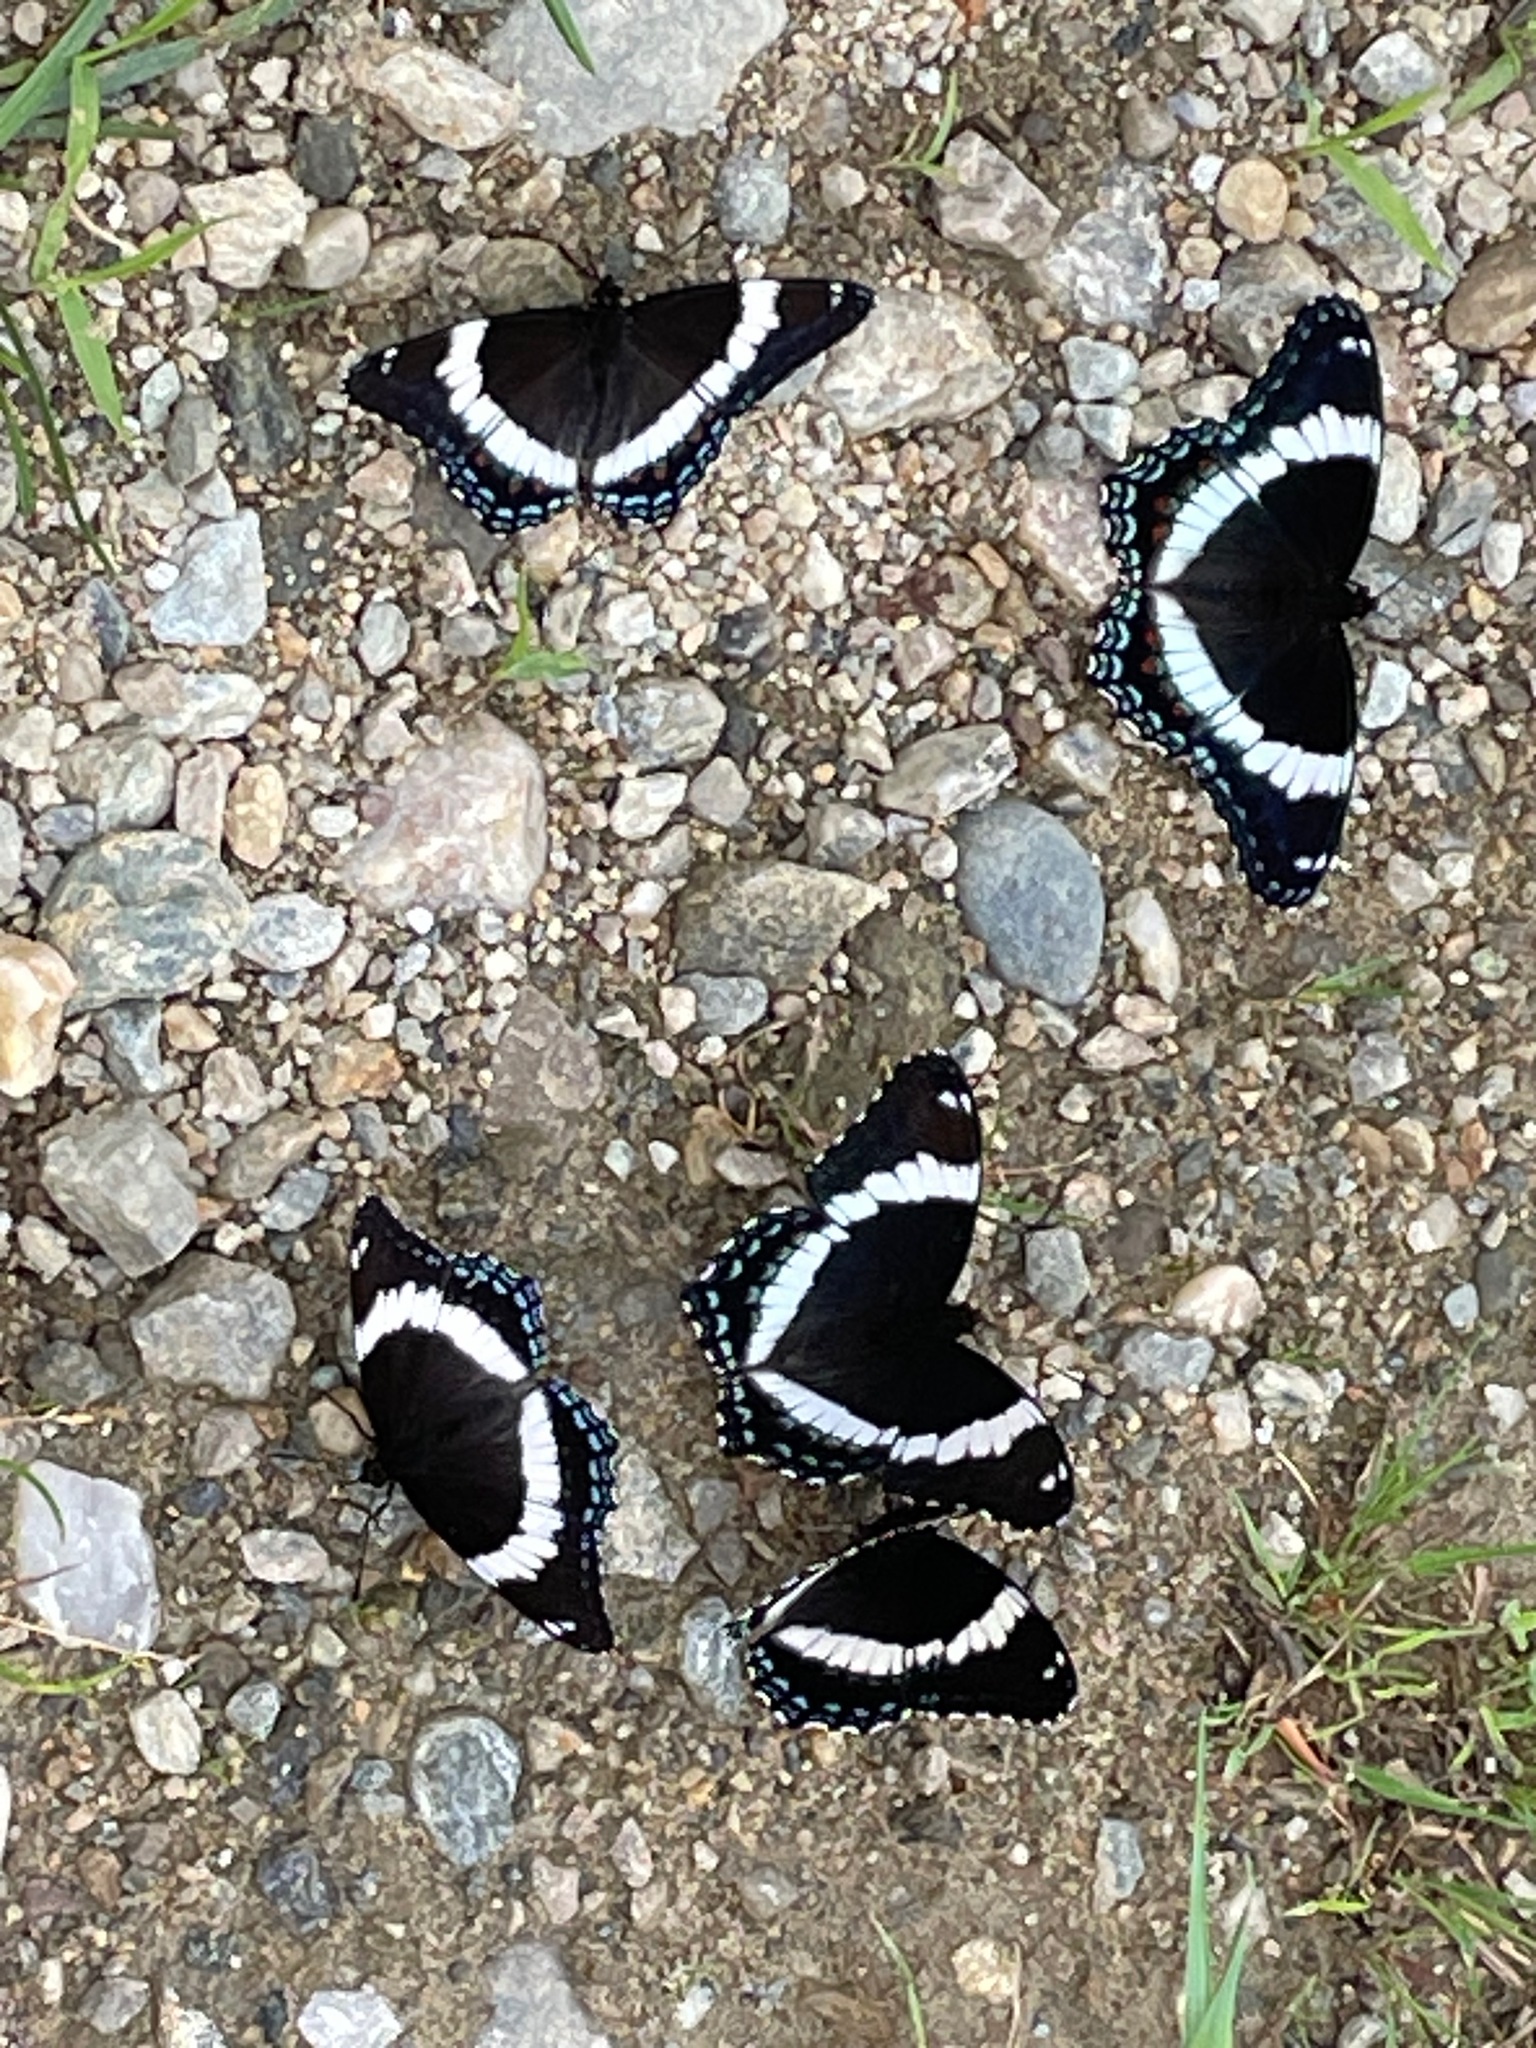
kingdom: Animalia
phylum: Arthropoda
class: Insecta
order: Lepidoptera
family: Nymphalidae
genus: Limenitis
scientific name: Limenitis arthemis
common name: Red-spotted admiral
